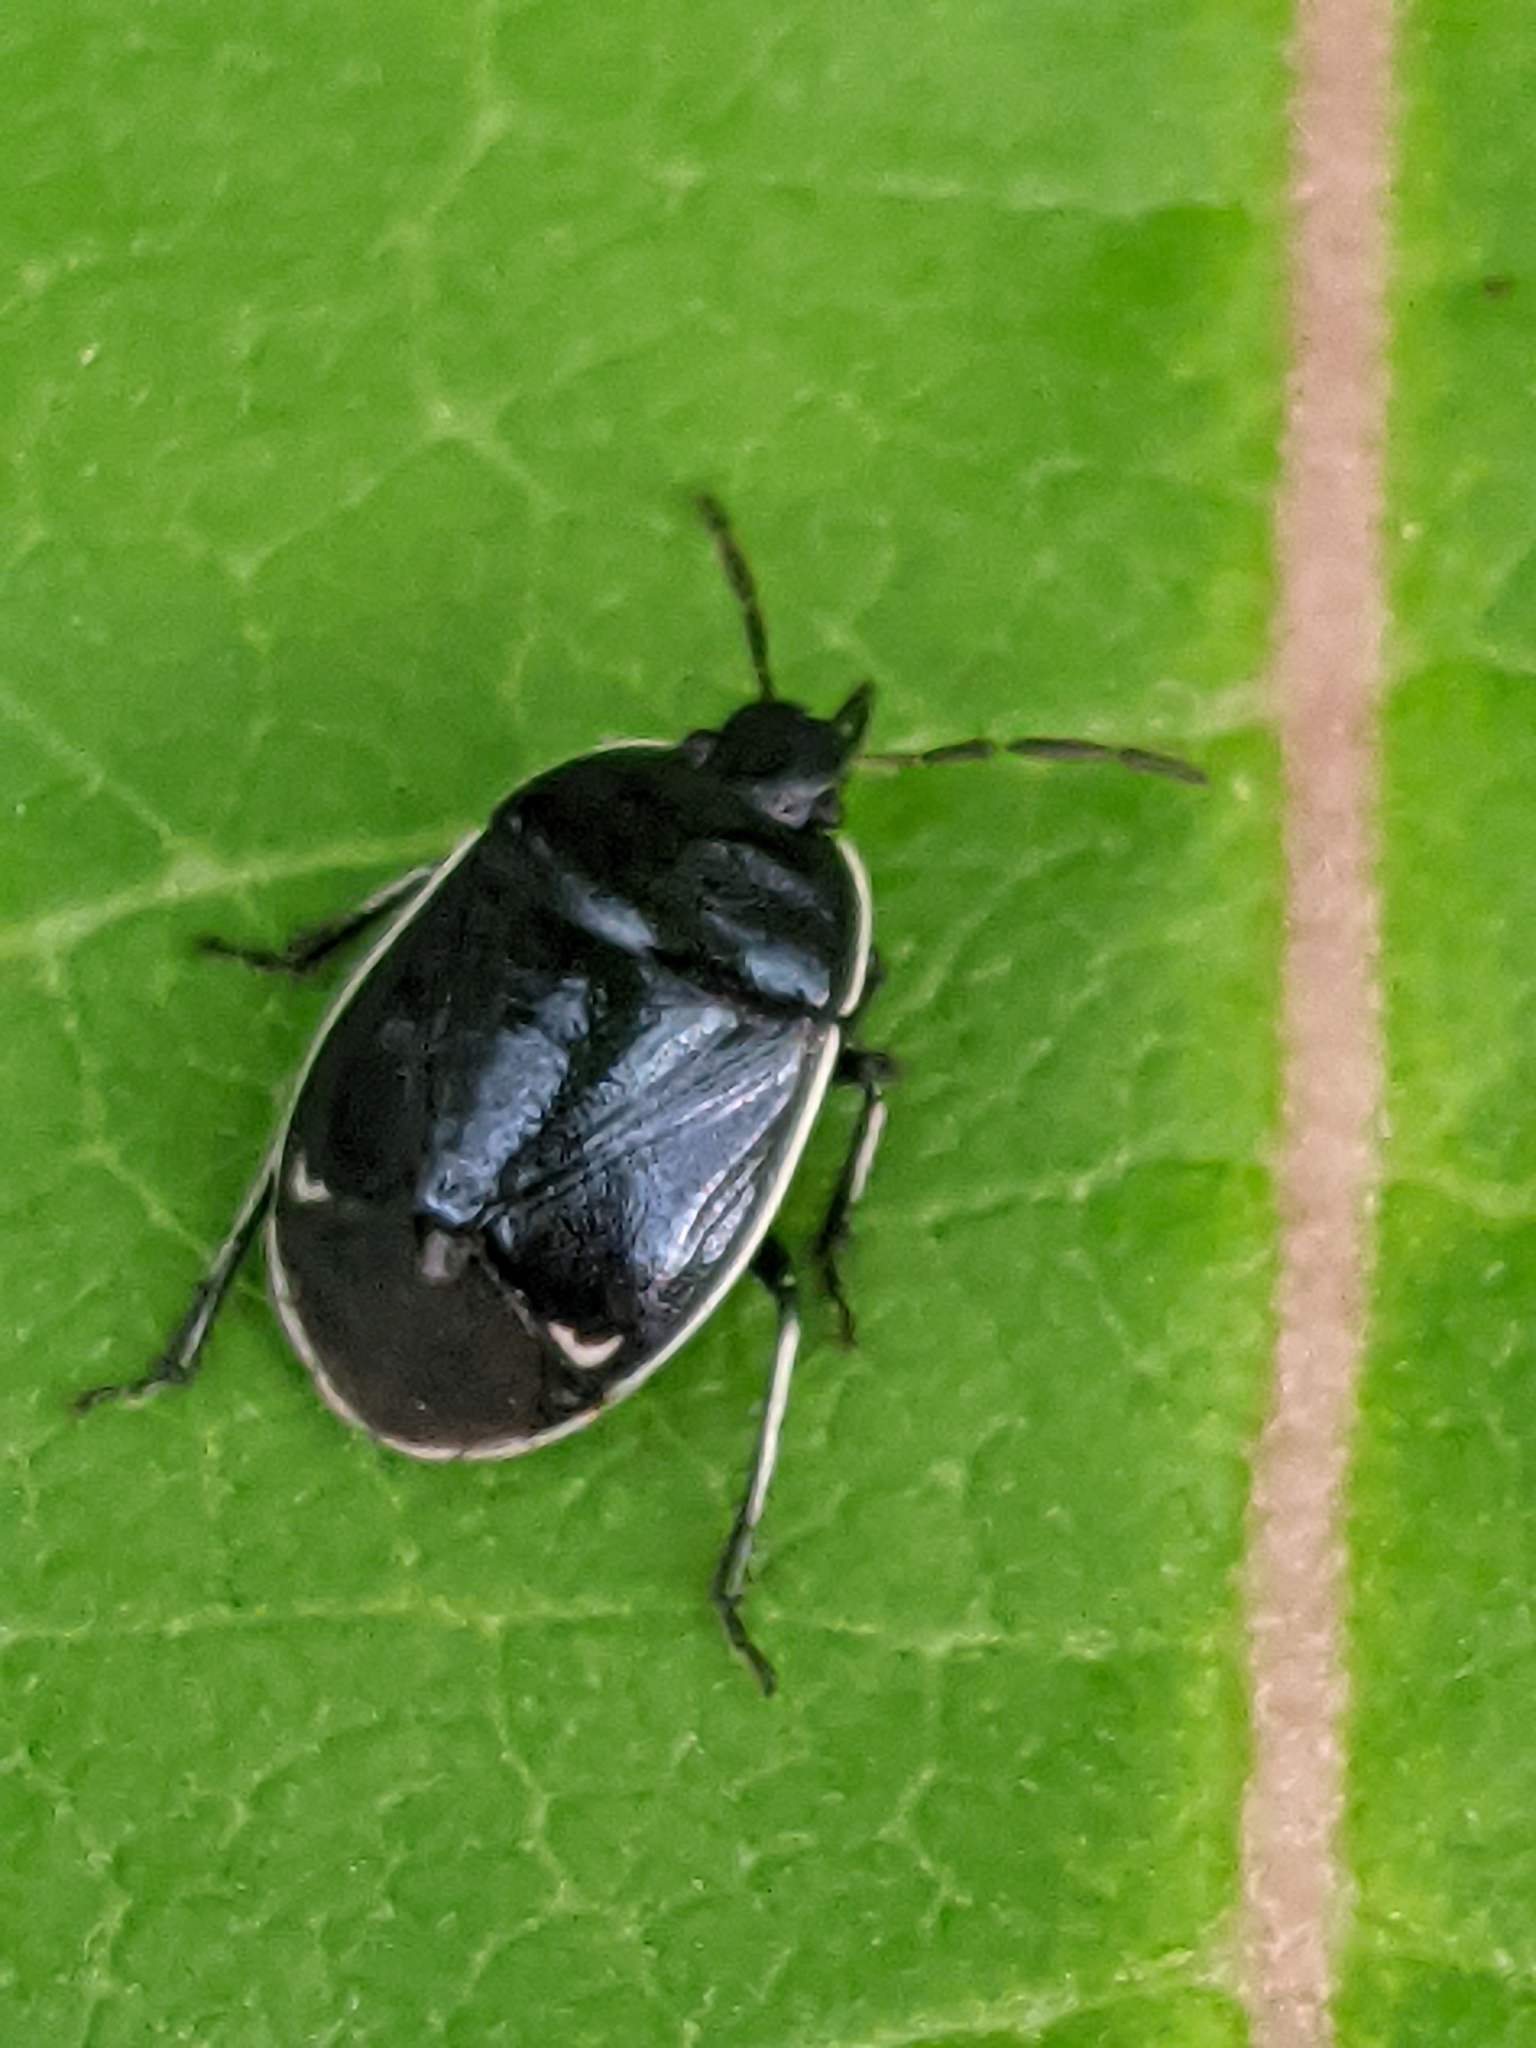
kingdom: Animalia
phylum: Arthropoda
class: Insecta
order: Hemiptera
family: Cydnidae
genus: Sehirus
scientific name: Sehirus cinctus
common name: White-margined burrower bug
